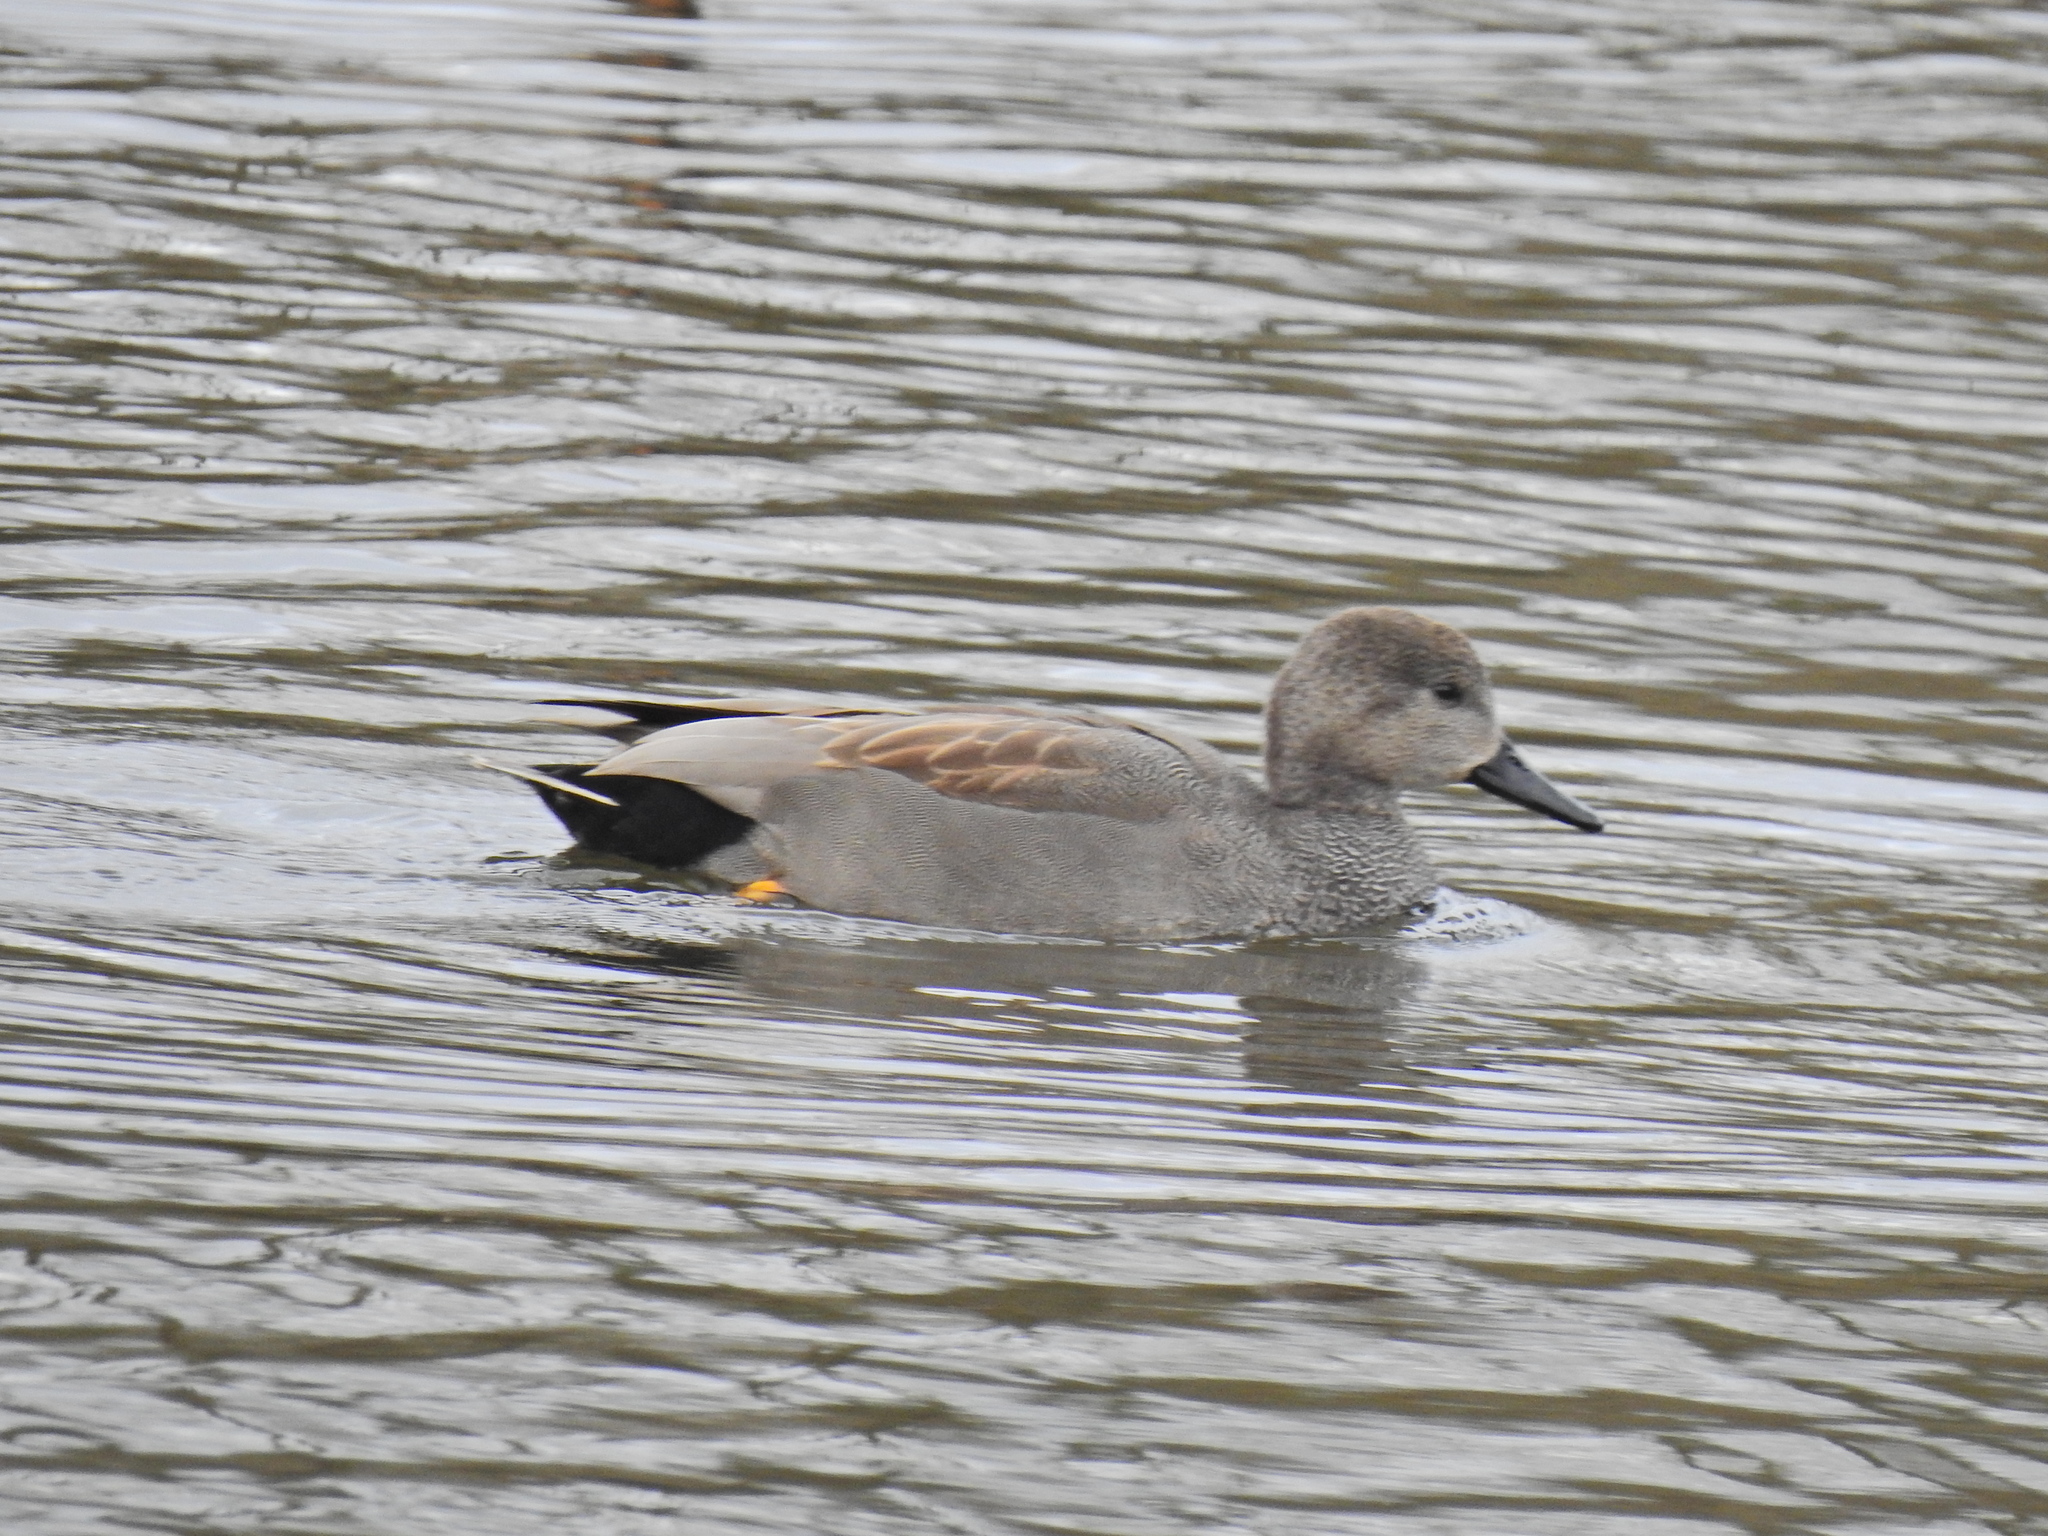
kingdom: Animalia
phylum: Chordata
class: Aves
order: Anseriformes
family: Anatidae
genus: Mareca
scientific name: Mareca strepera
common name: Gadwall
